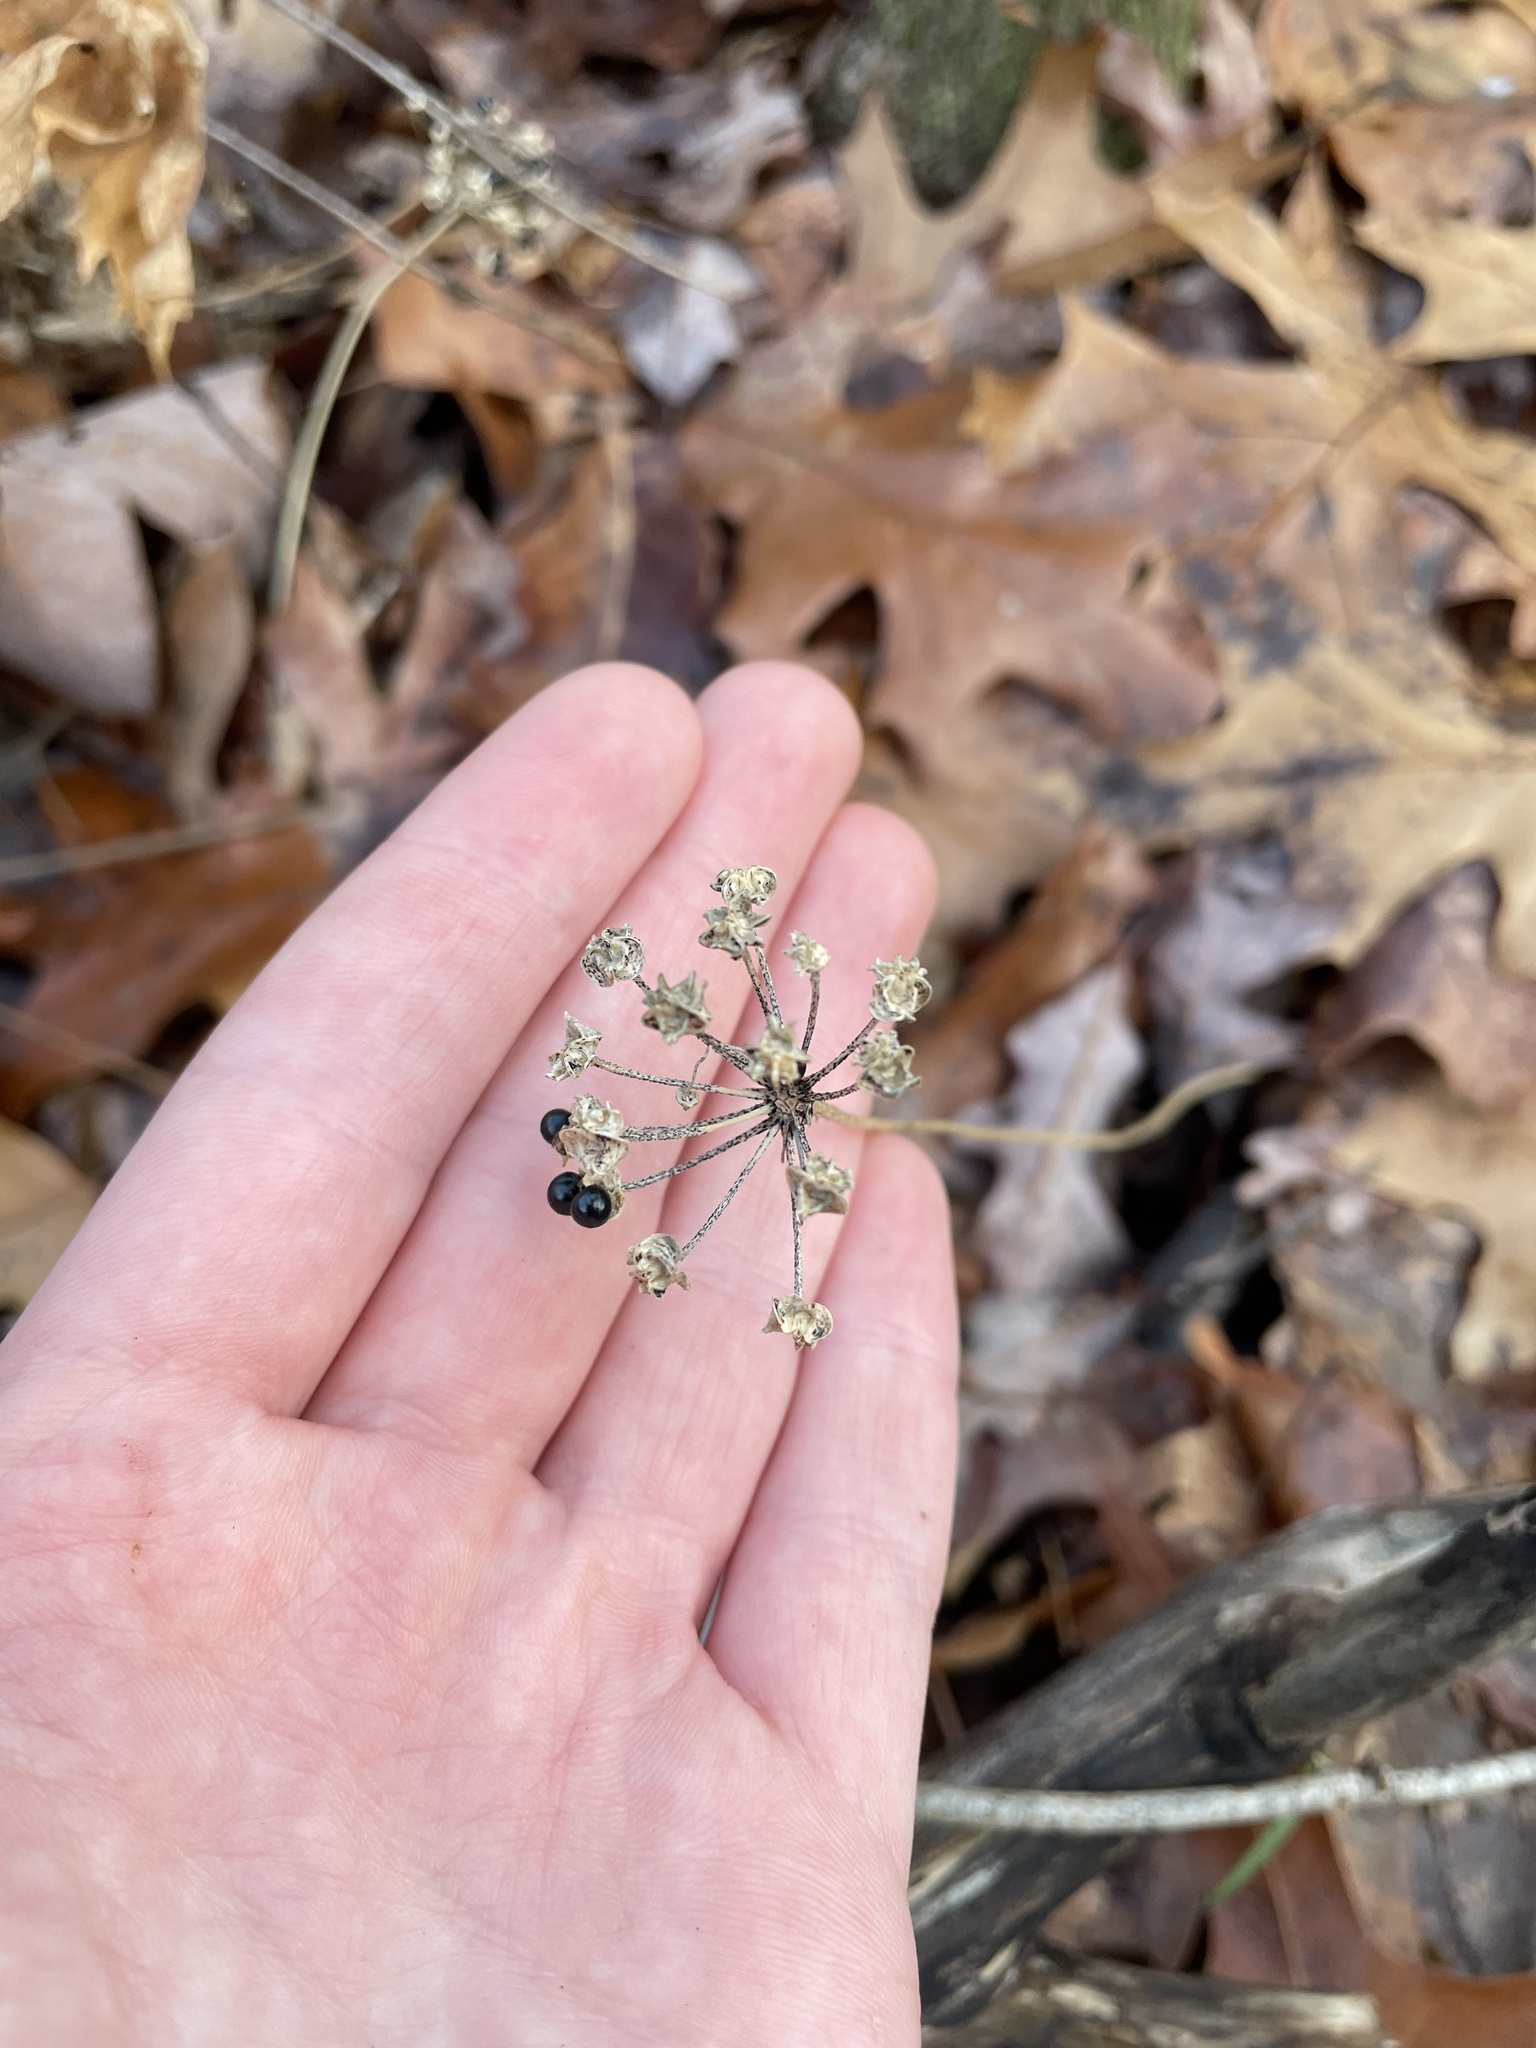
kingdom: Plantae
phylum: Tracheophyta
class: Liliopsida
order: Asparagales
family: Amaryllidaceae
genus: Allium
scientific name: Allium tricoccum
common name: Ramp
